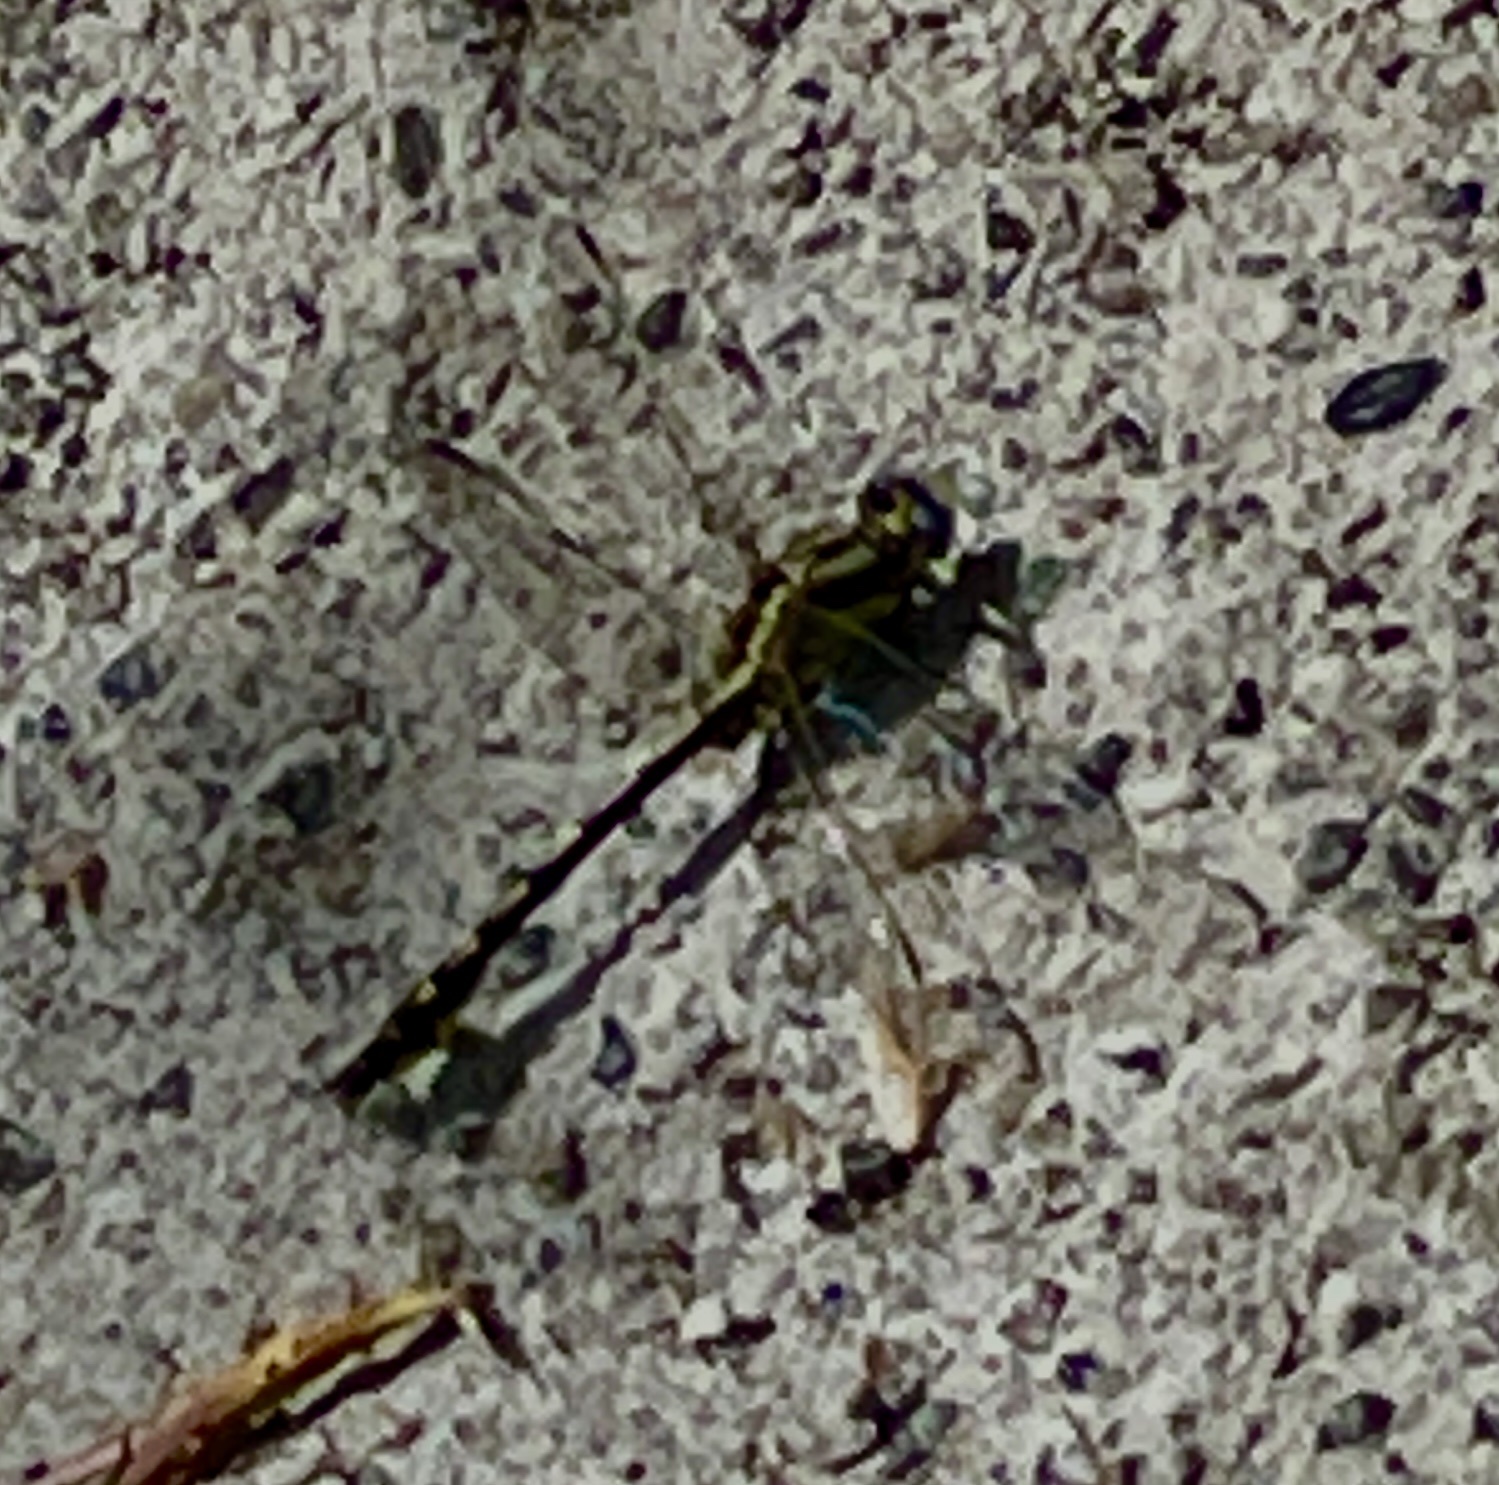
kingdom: Animalia
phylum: Arthropoda
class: Insecta
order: Odonata
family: Gomphidae
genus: Phanogomphus
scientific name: Phanogomphus kurilis
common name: Pacific clubtail
